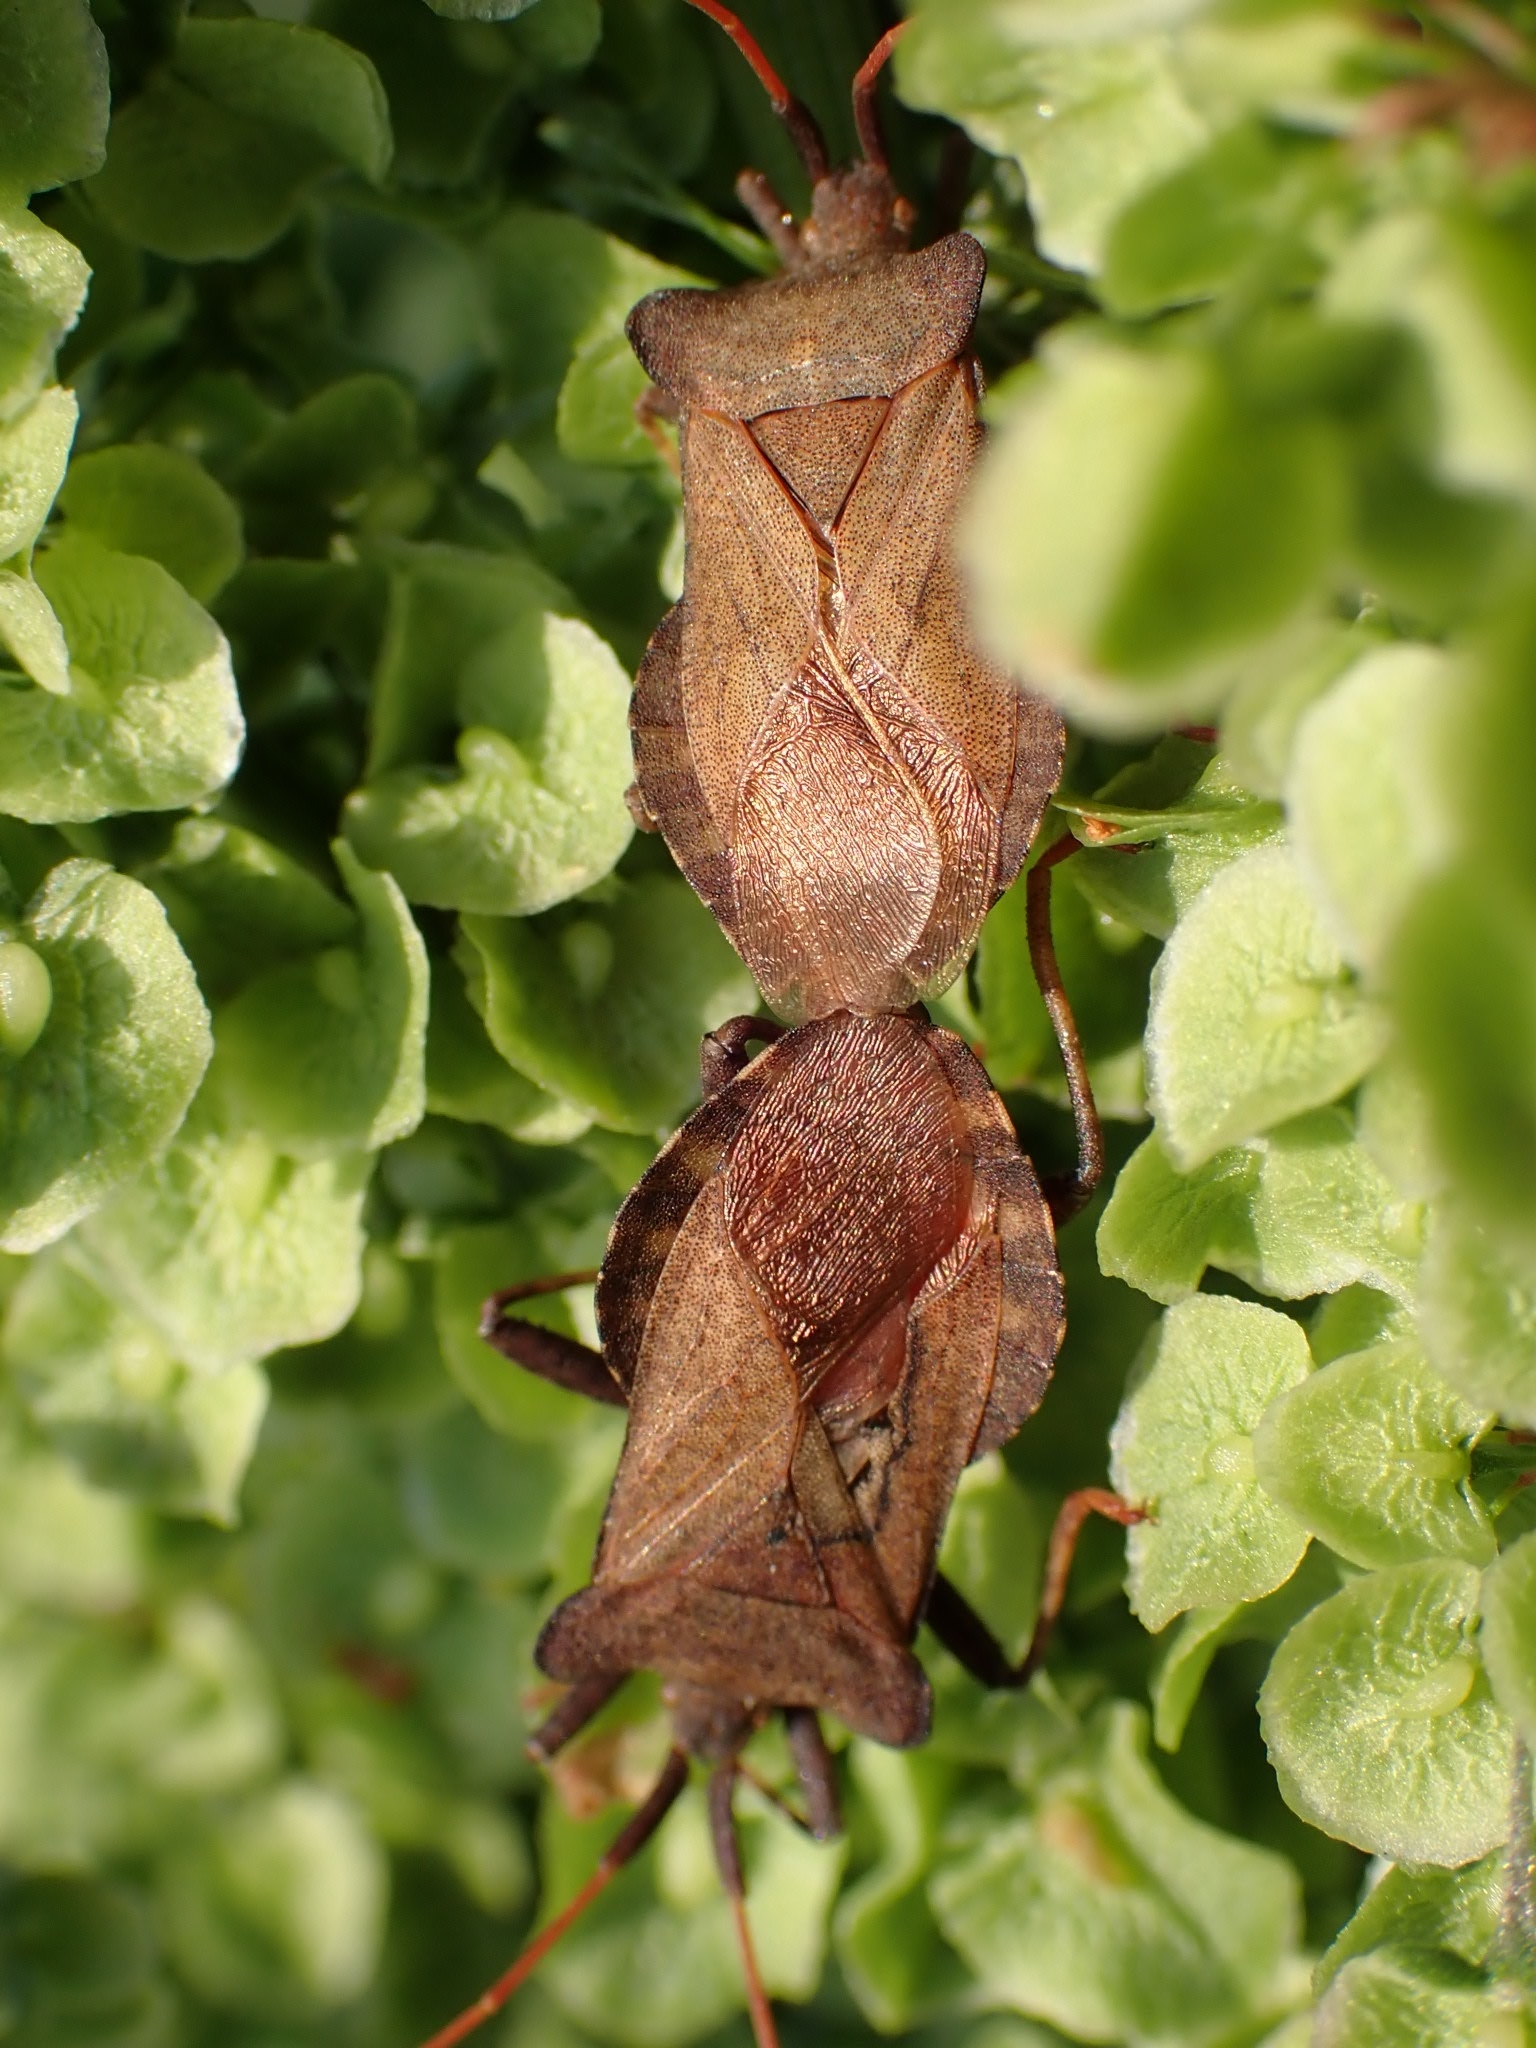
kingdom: Animalia
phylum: Arthropoda
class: Insecta
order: Hemiptera
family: Coreidae
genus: Coreus
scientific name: Coreus marginatus
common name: Dock bug
